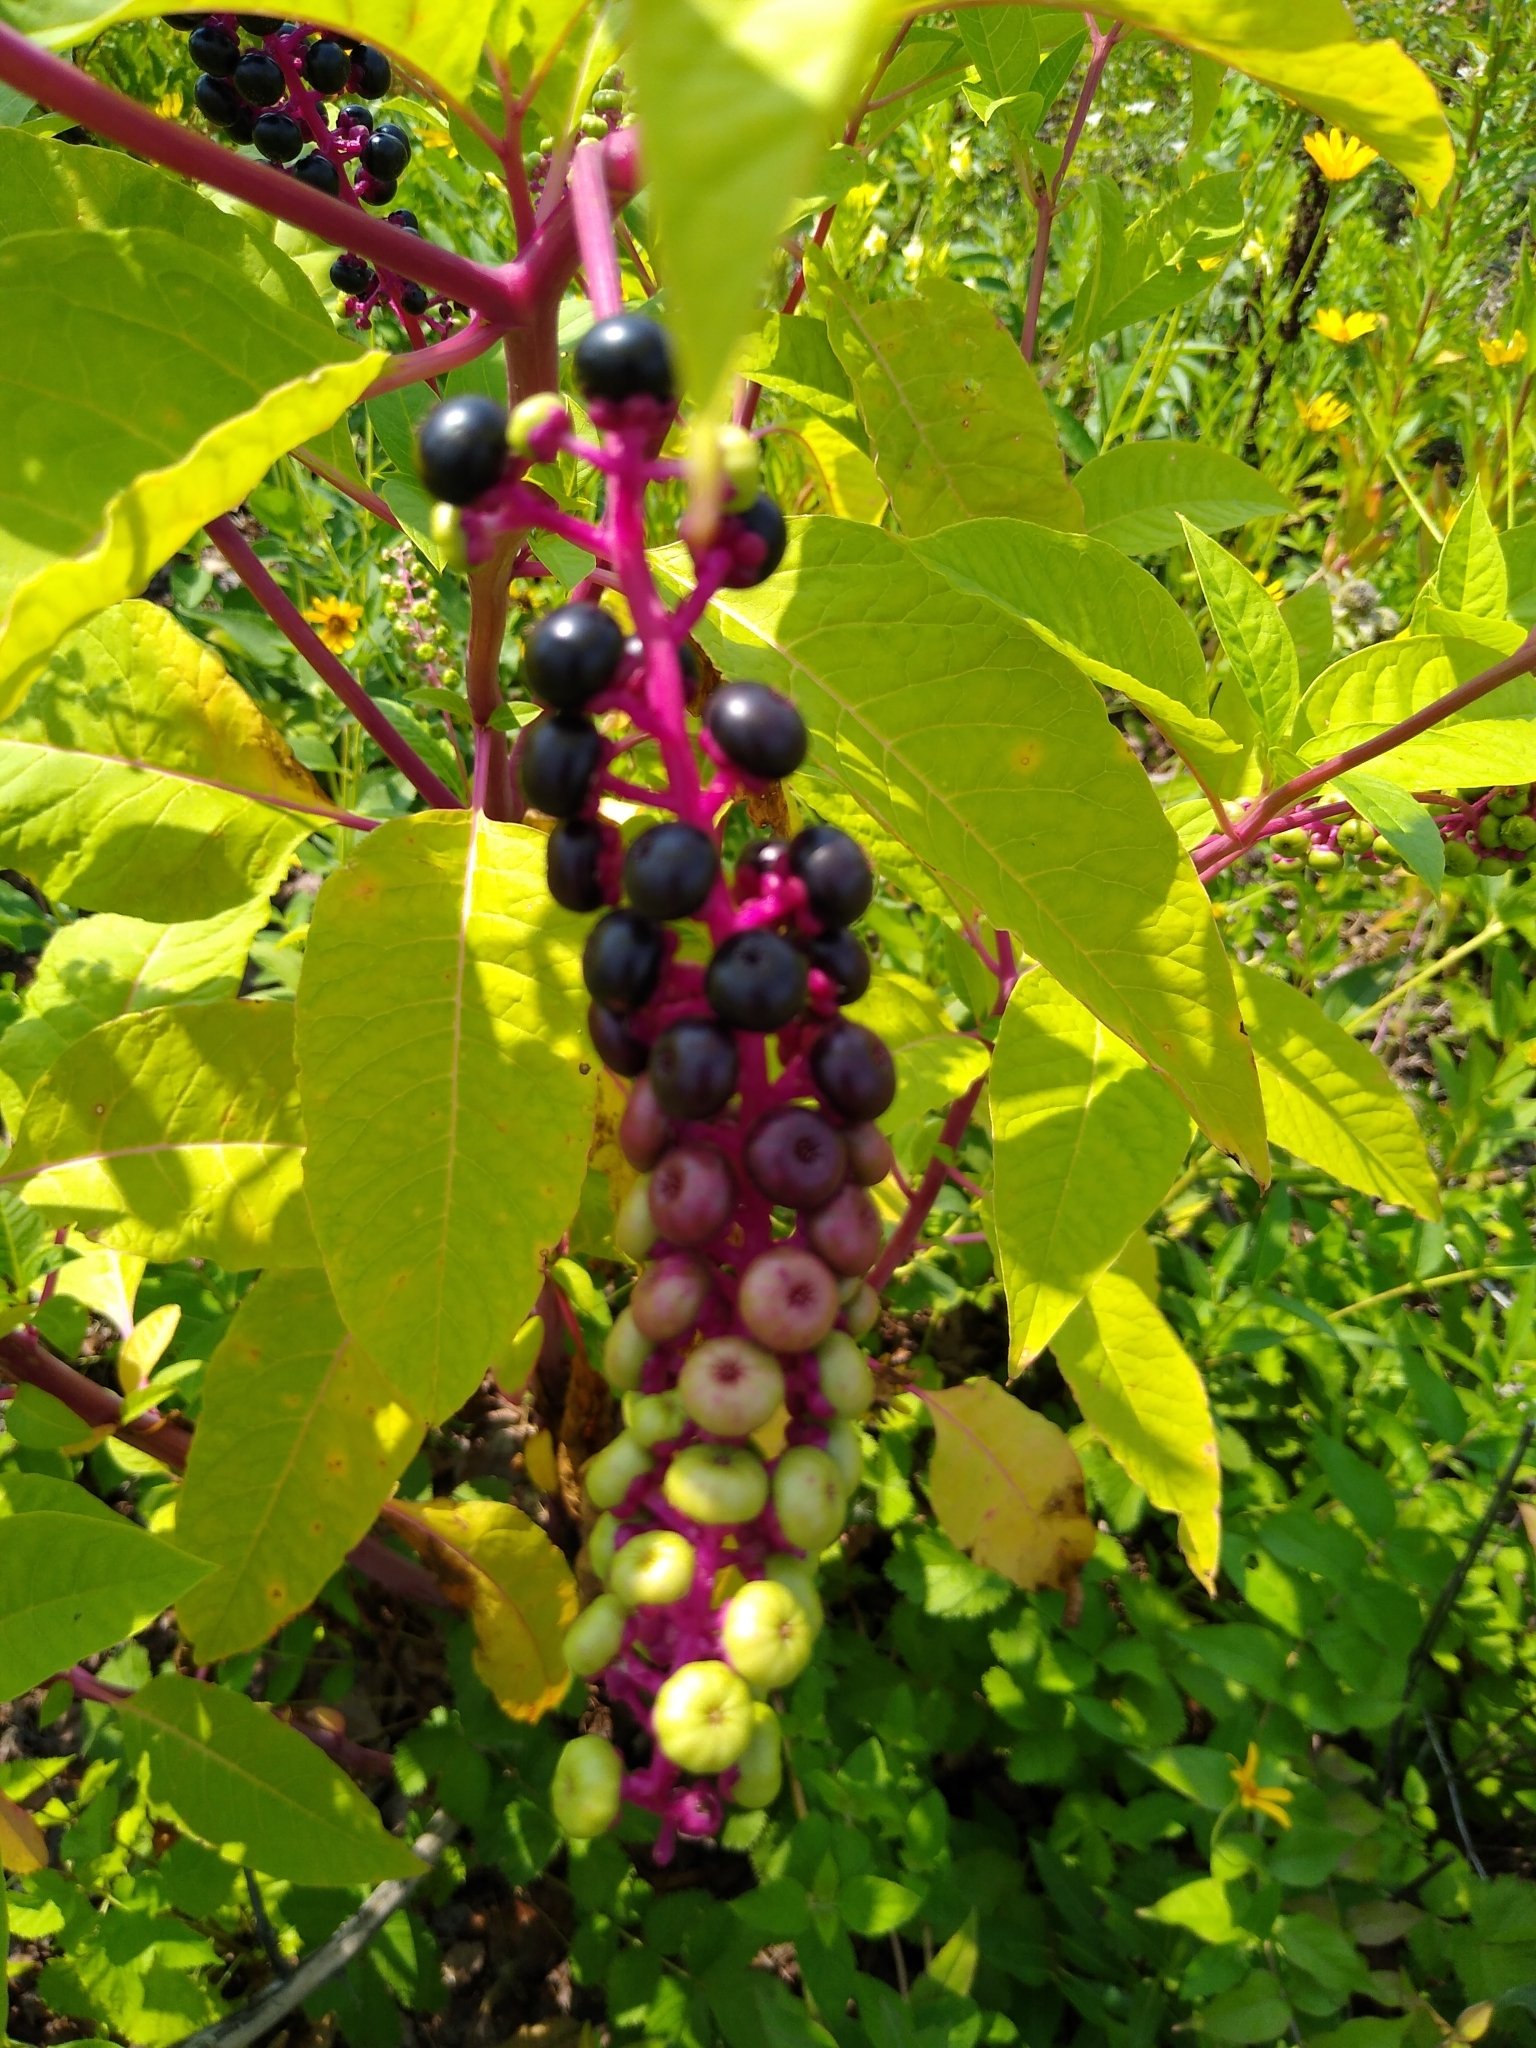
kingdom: Plantae
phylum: Tracheophyta
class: Magnoliopsida
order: Caryophyllales
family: Phytolaccaceae
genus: Phytolacca
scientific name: Phytolacca americana
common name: American pokeweed
